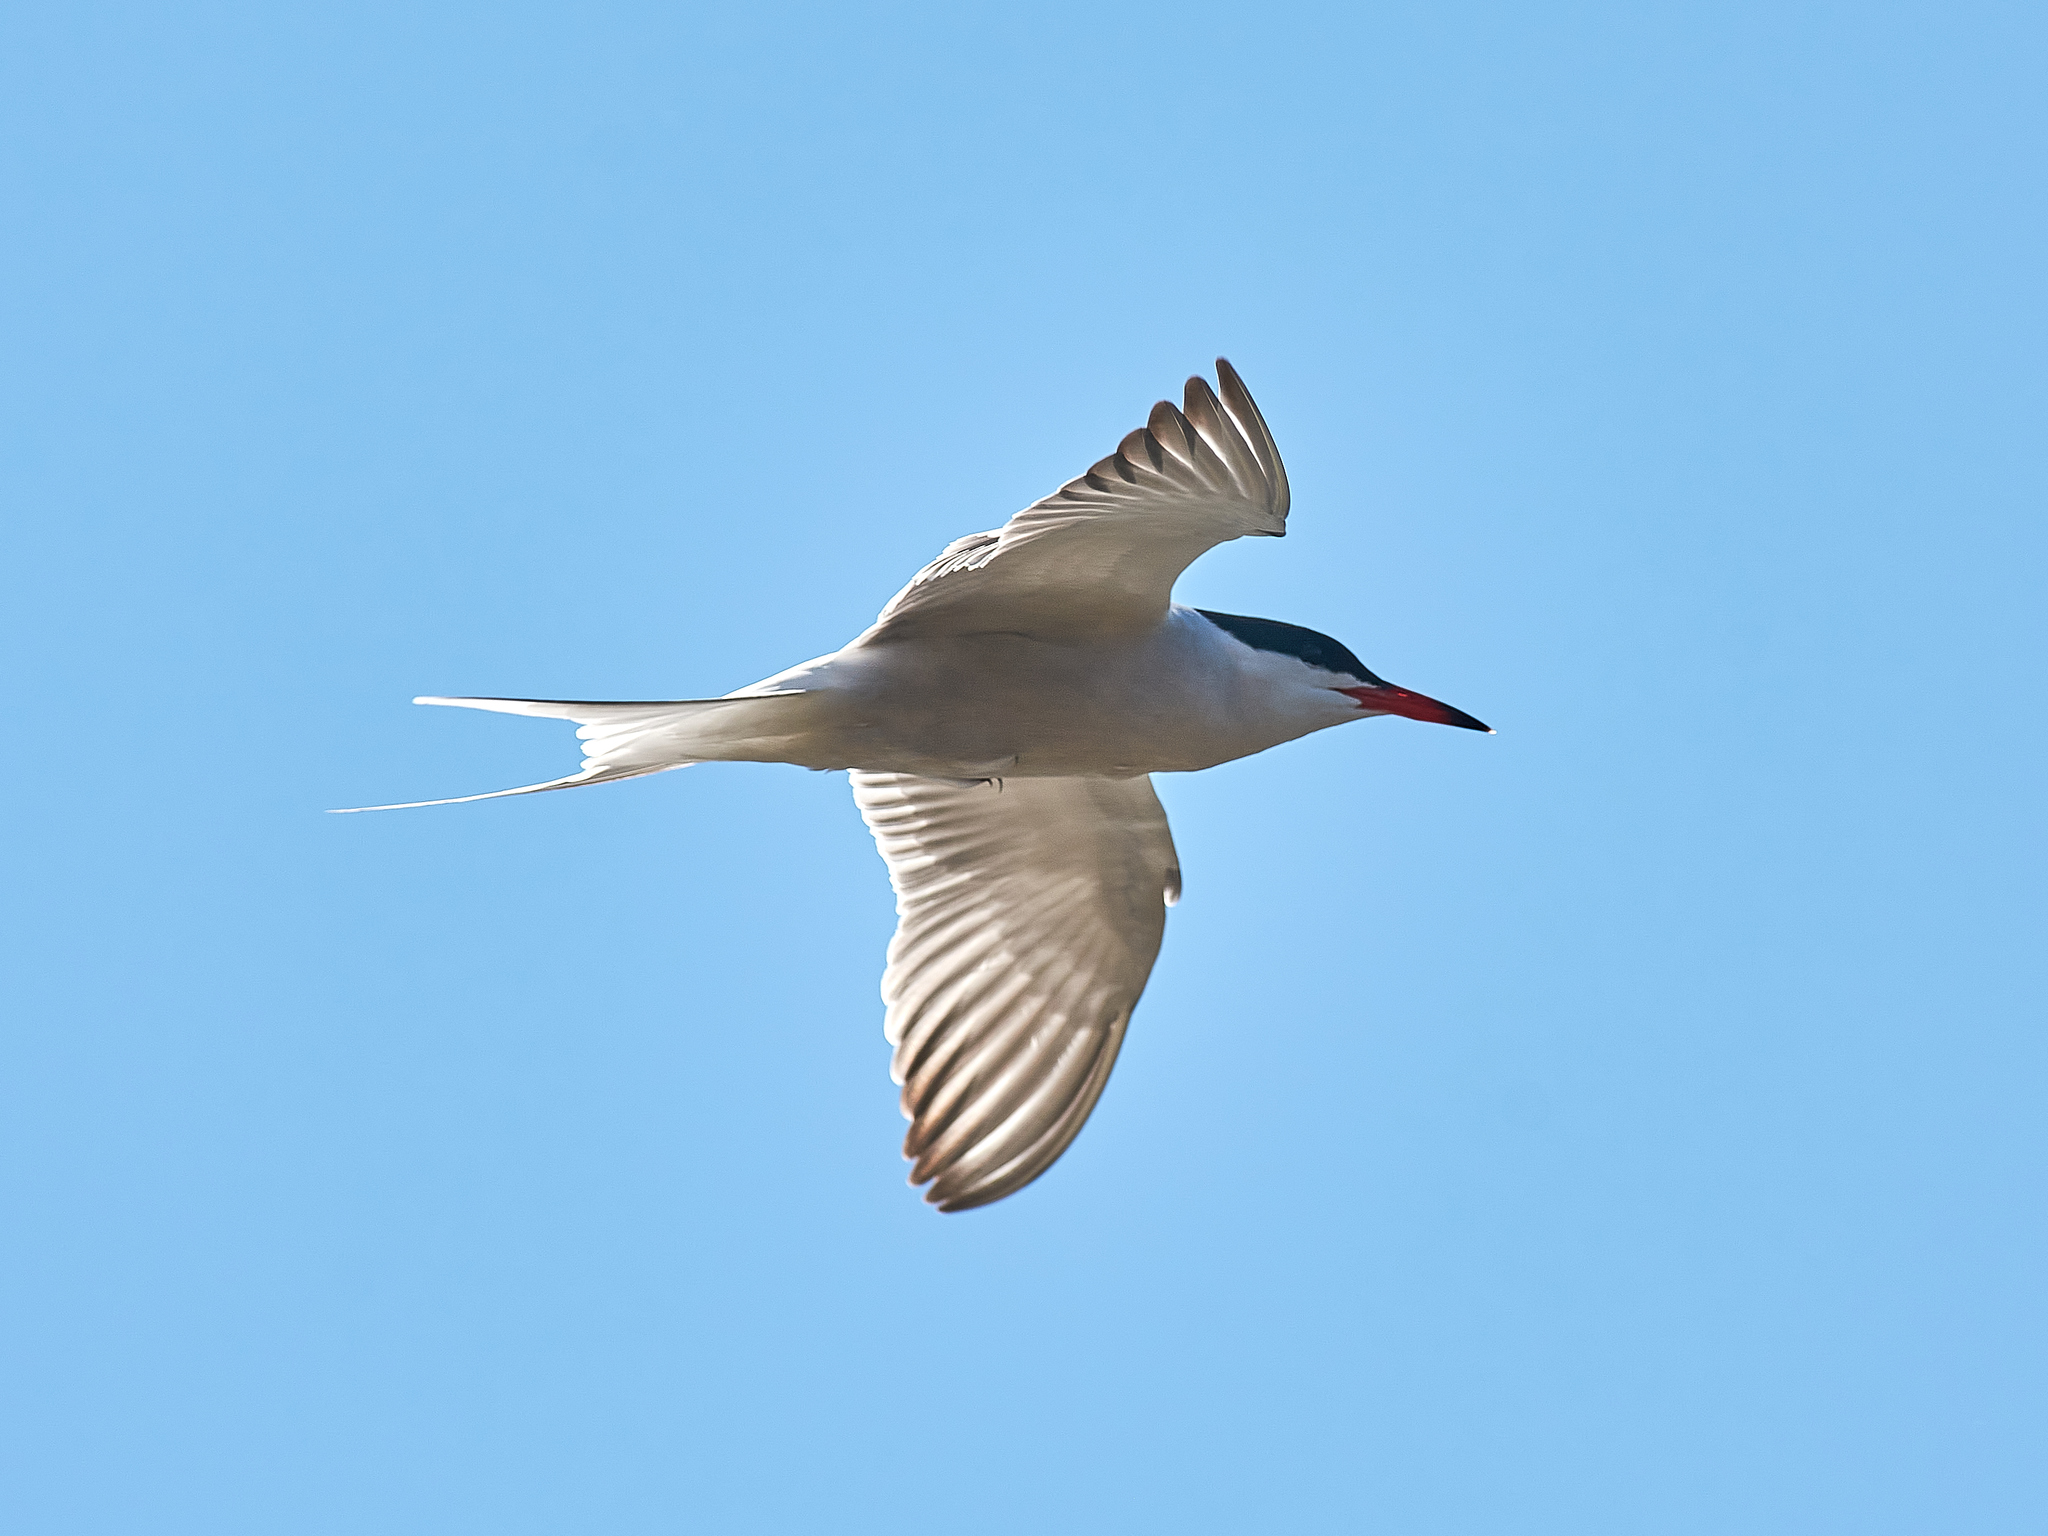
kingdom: Animalia
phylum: Chordata
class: Aves
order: Charadriiformes
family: Laridae
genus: Sterna
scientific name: Sterna hirundo
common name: Common tern
